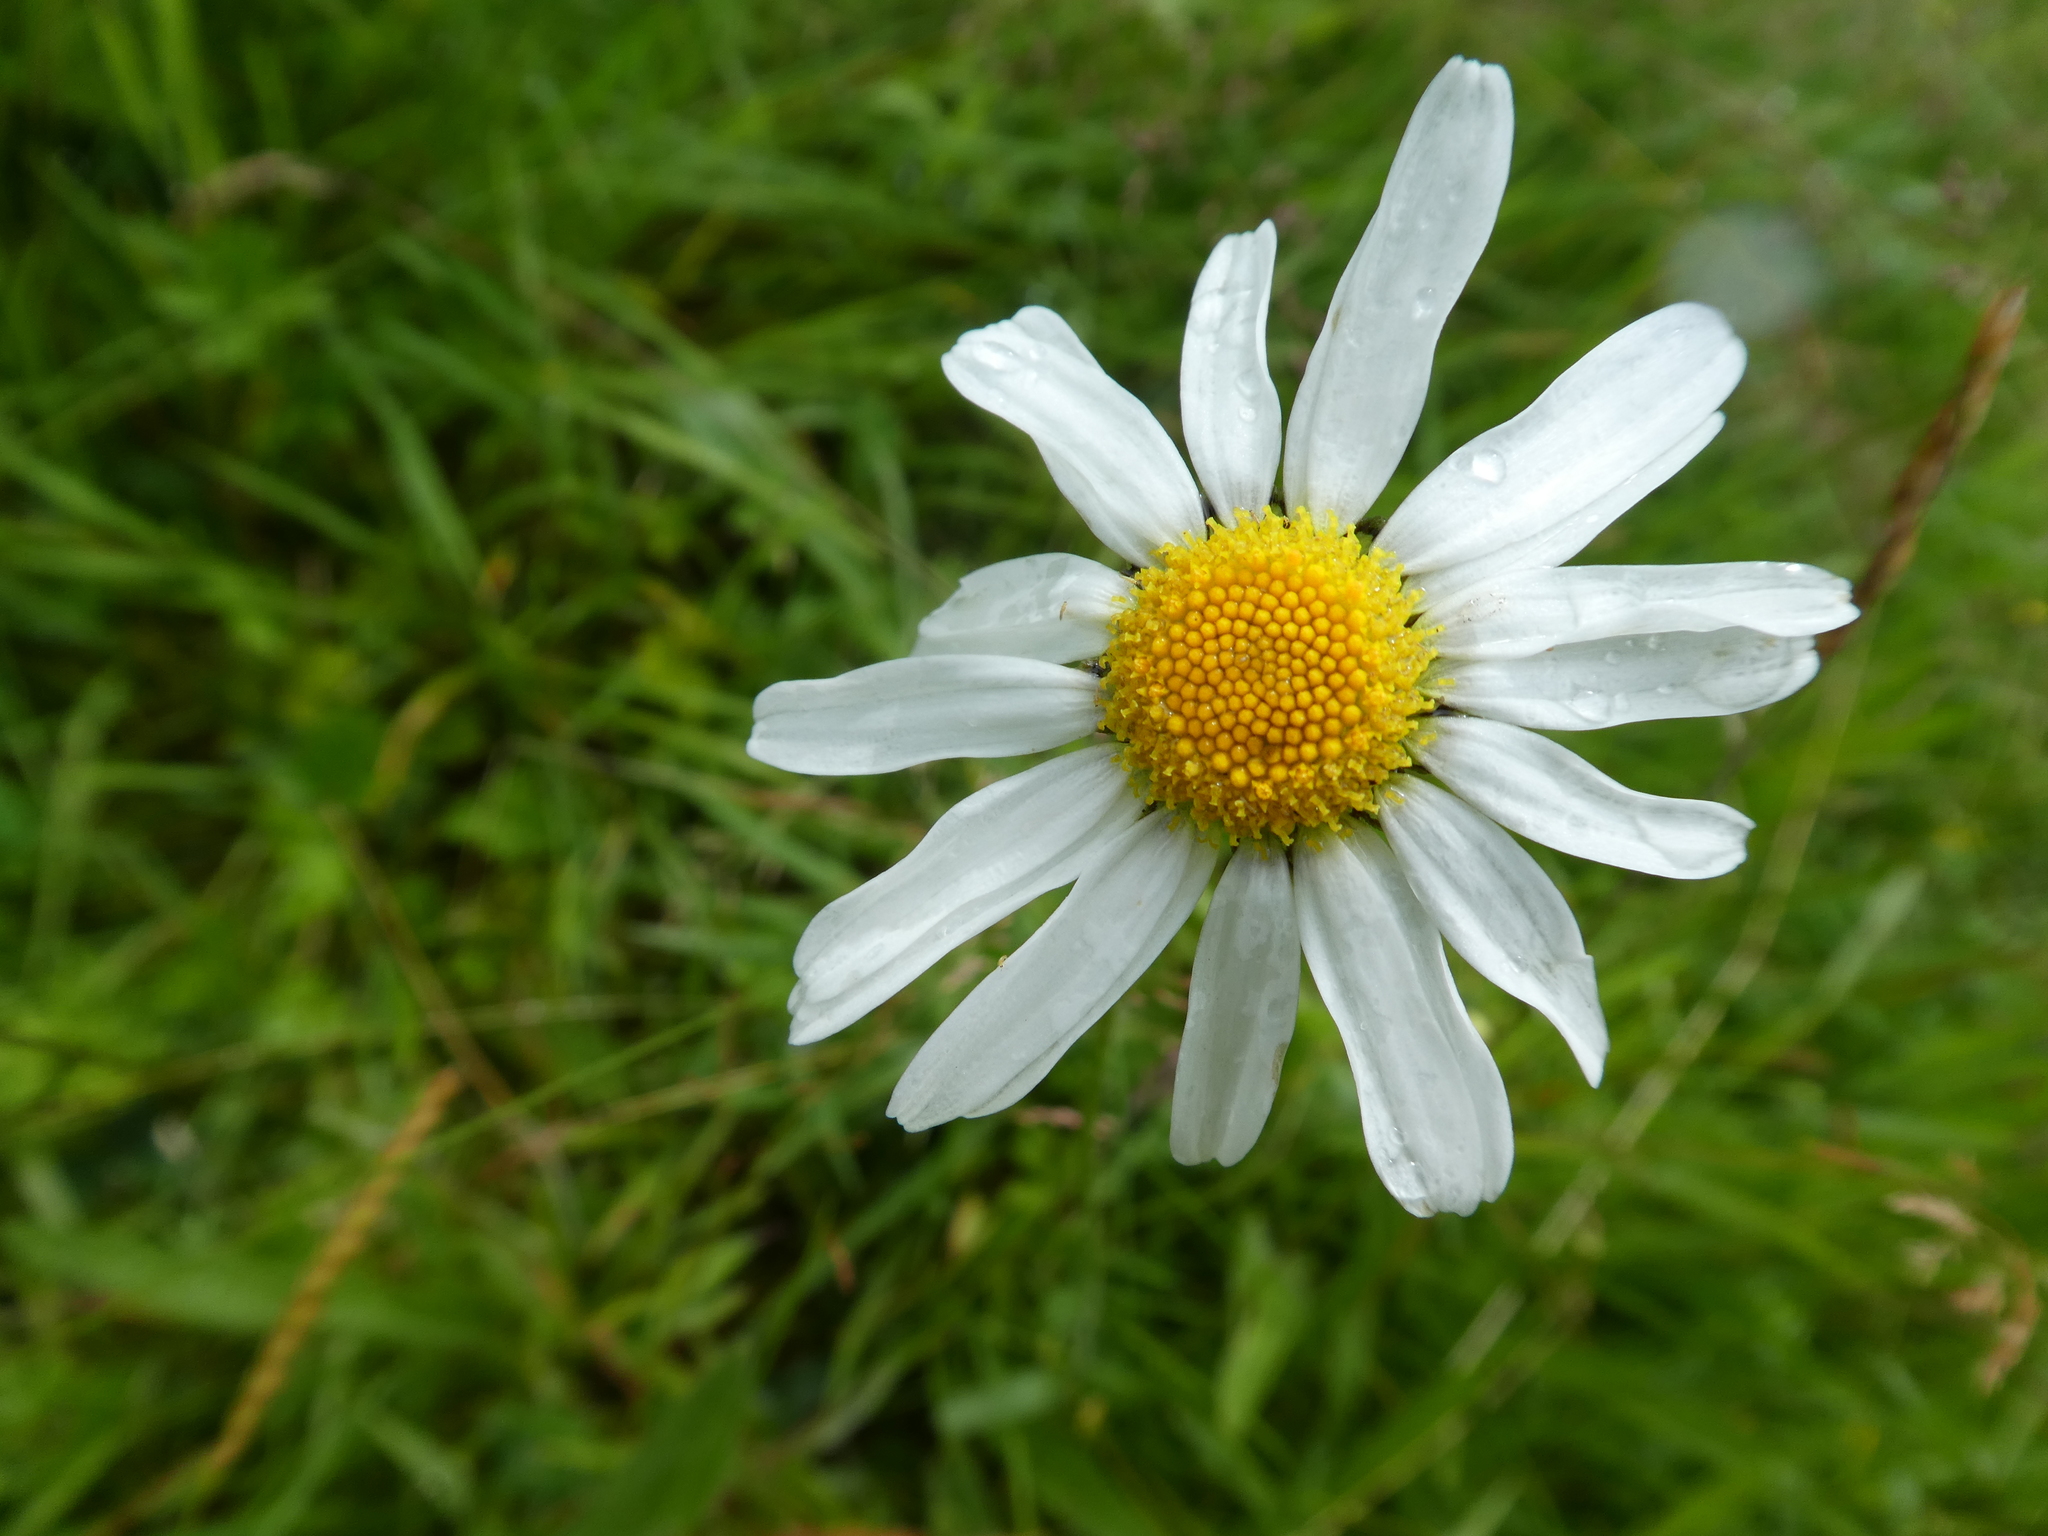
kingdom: Plantae
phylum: Tracheophyta
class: Magnoliopsida
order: Asterales
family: Asteraceae
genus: Leucanthemum
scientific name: Leucanthemum vulgare
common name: Oxeye daisy
